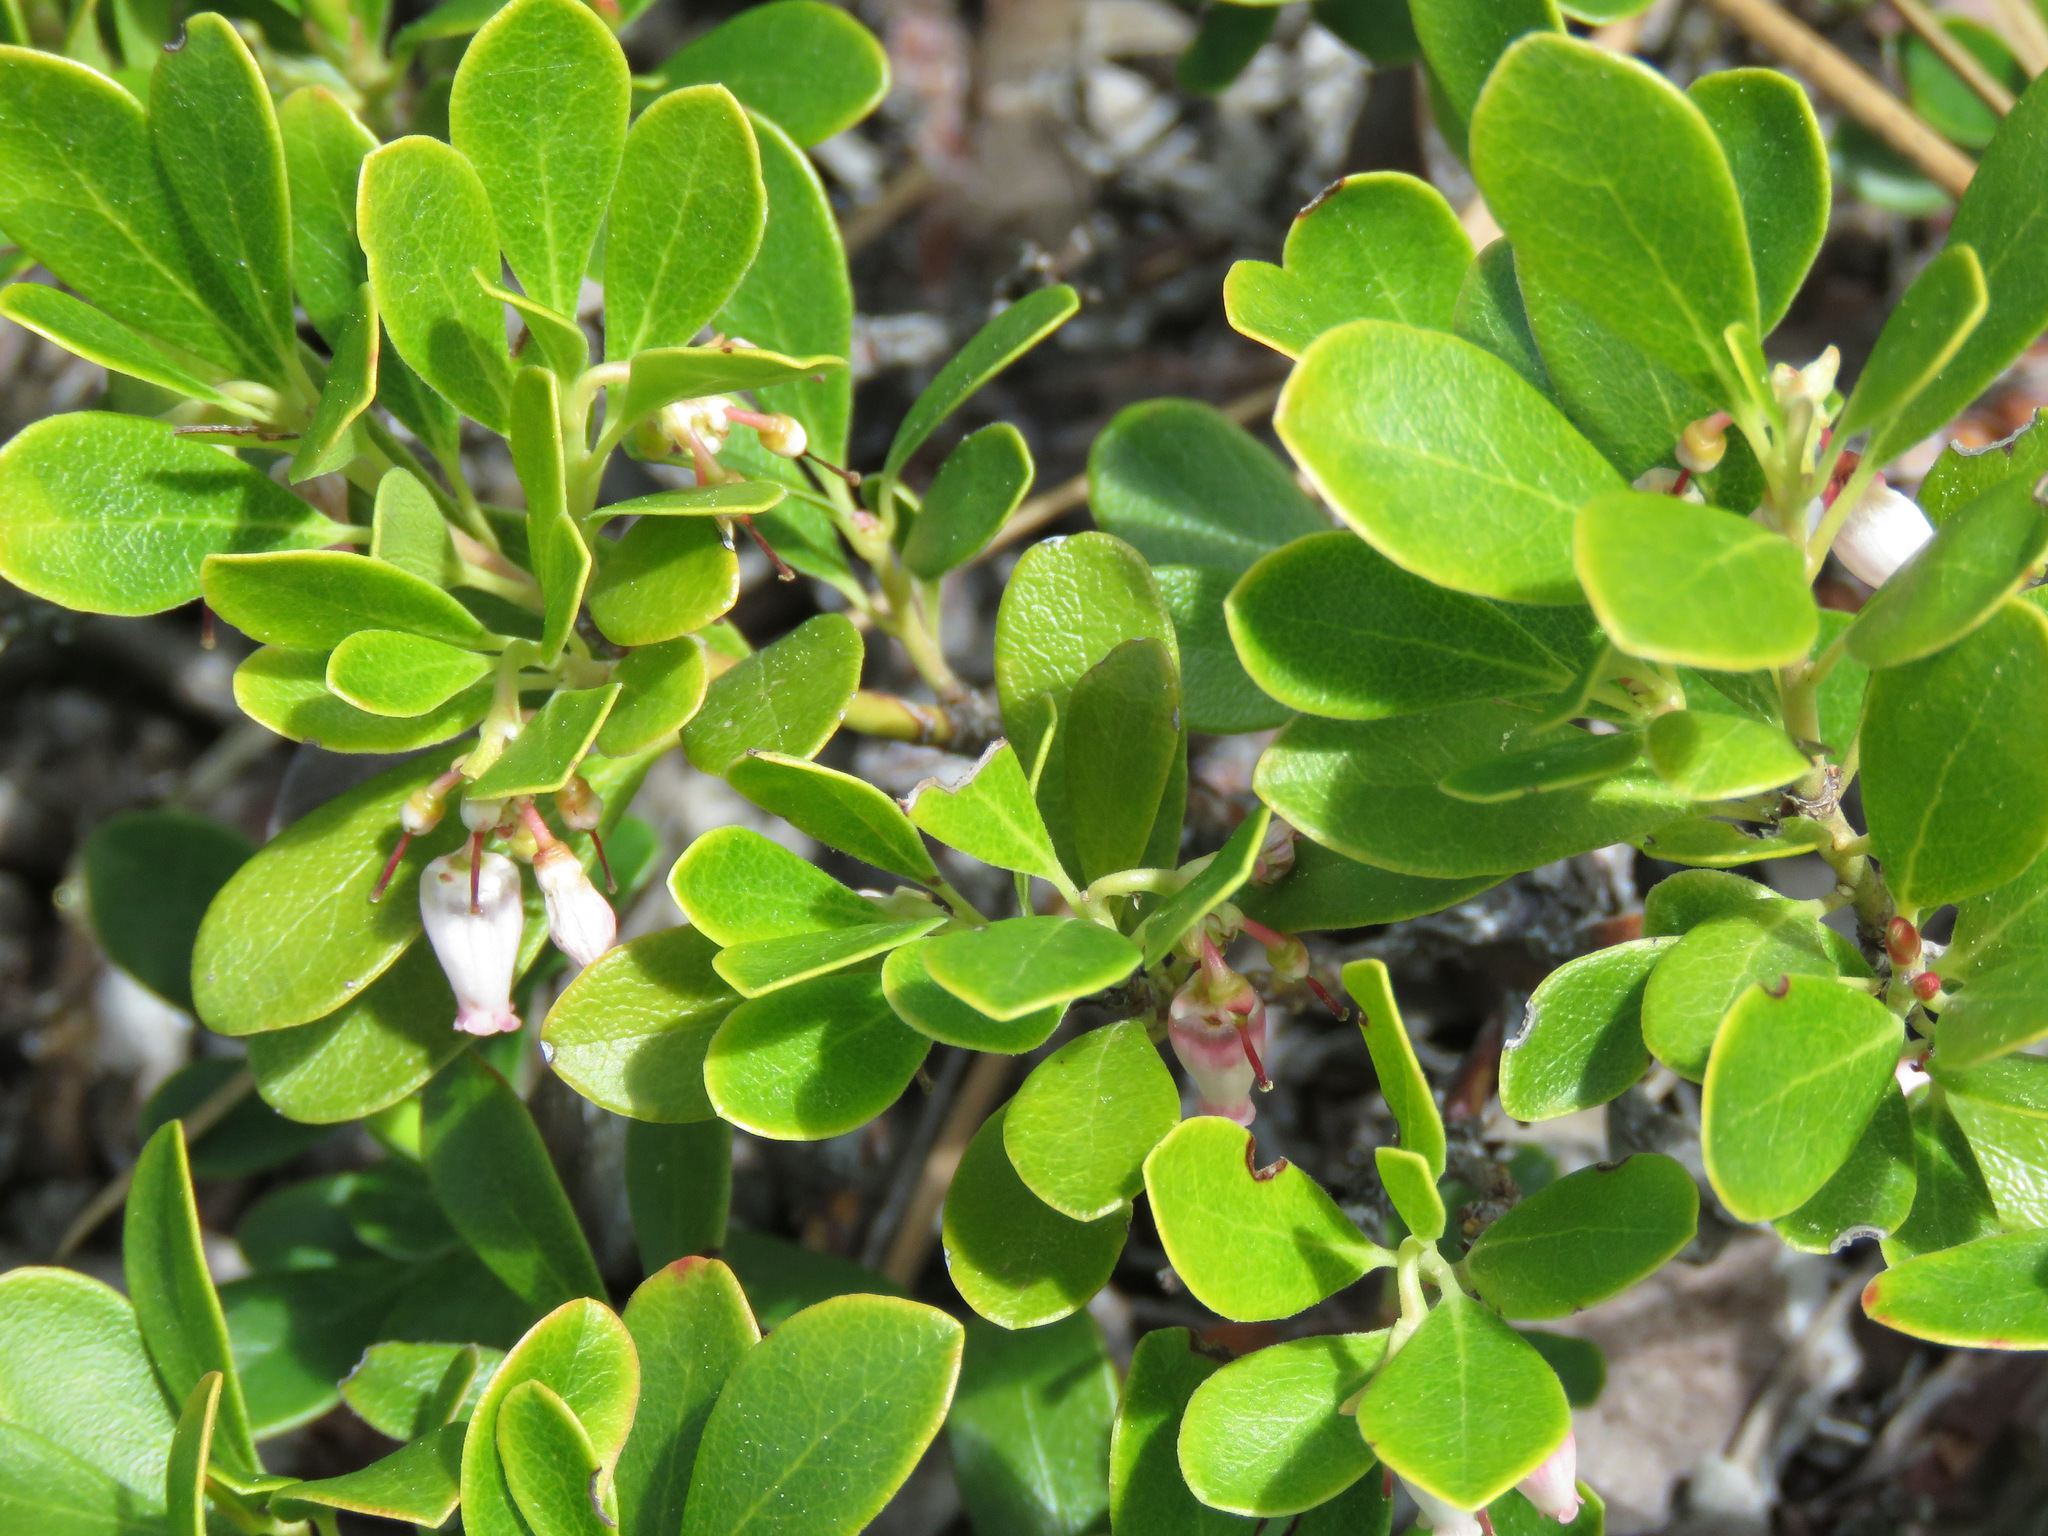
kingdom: Plantae
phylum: Tracheophyta
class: Magnoliopsida
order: Ericales
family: Ericaceae
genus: Arctostaphylos
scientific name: Arctostaphylos uva-ursi
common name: Bearberry
